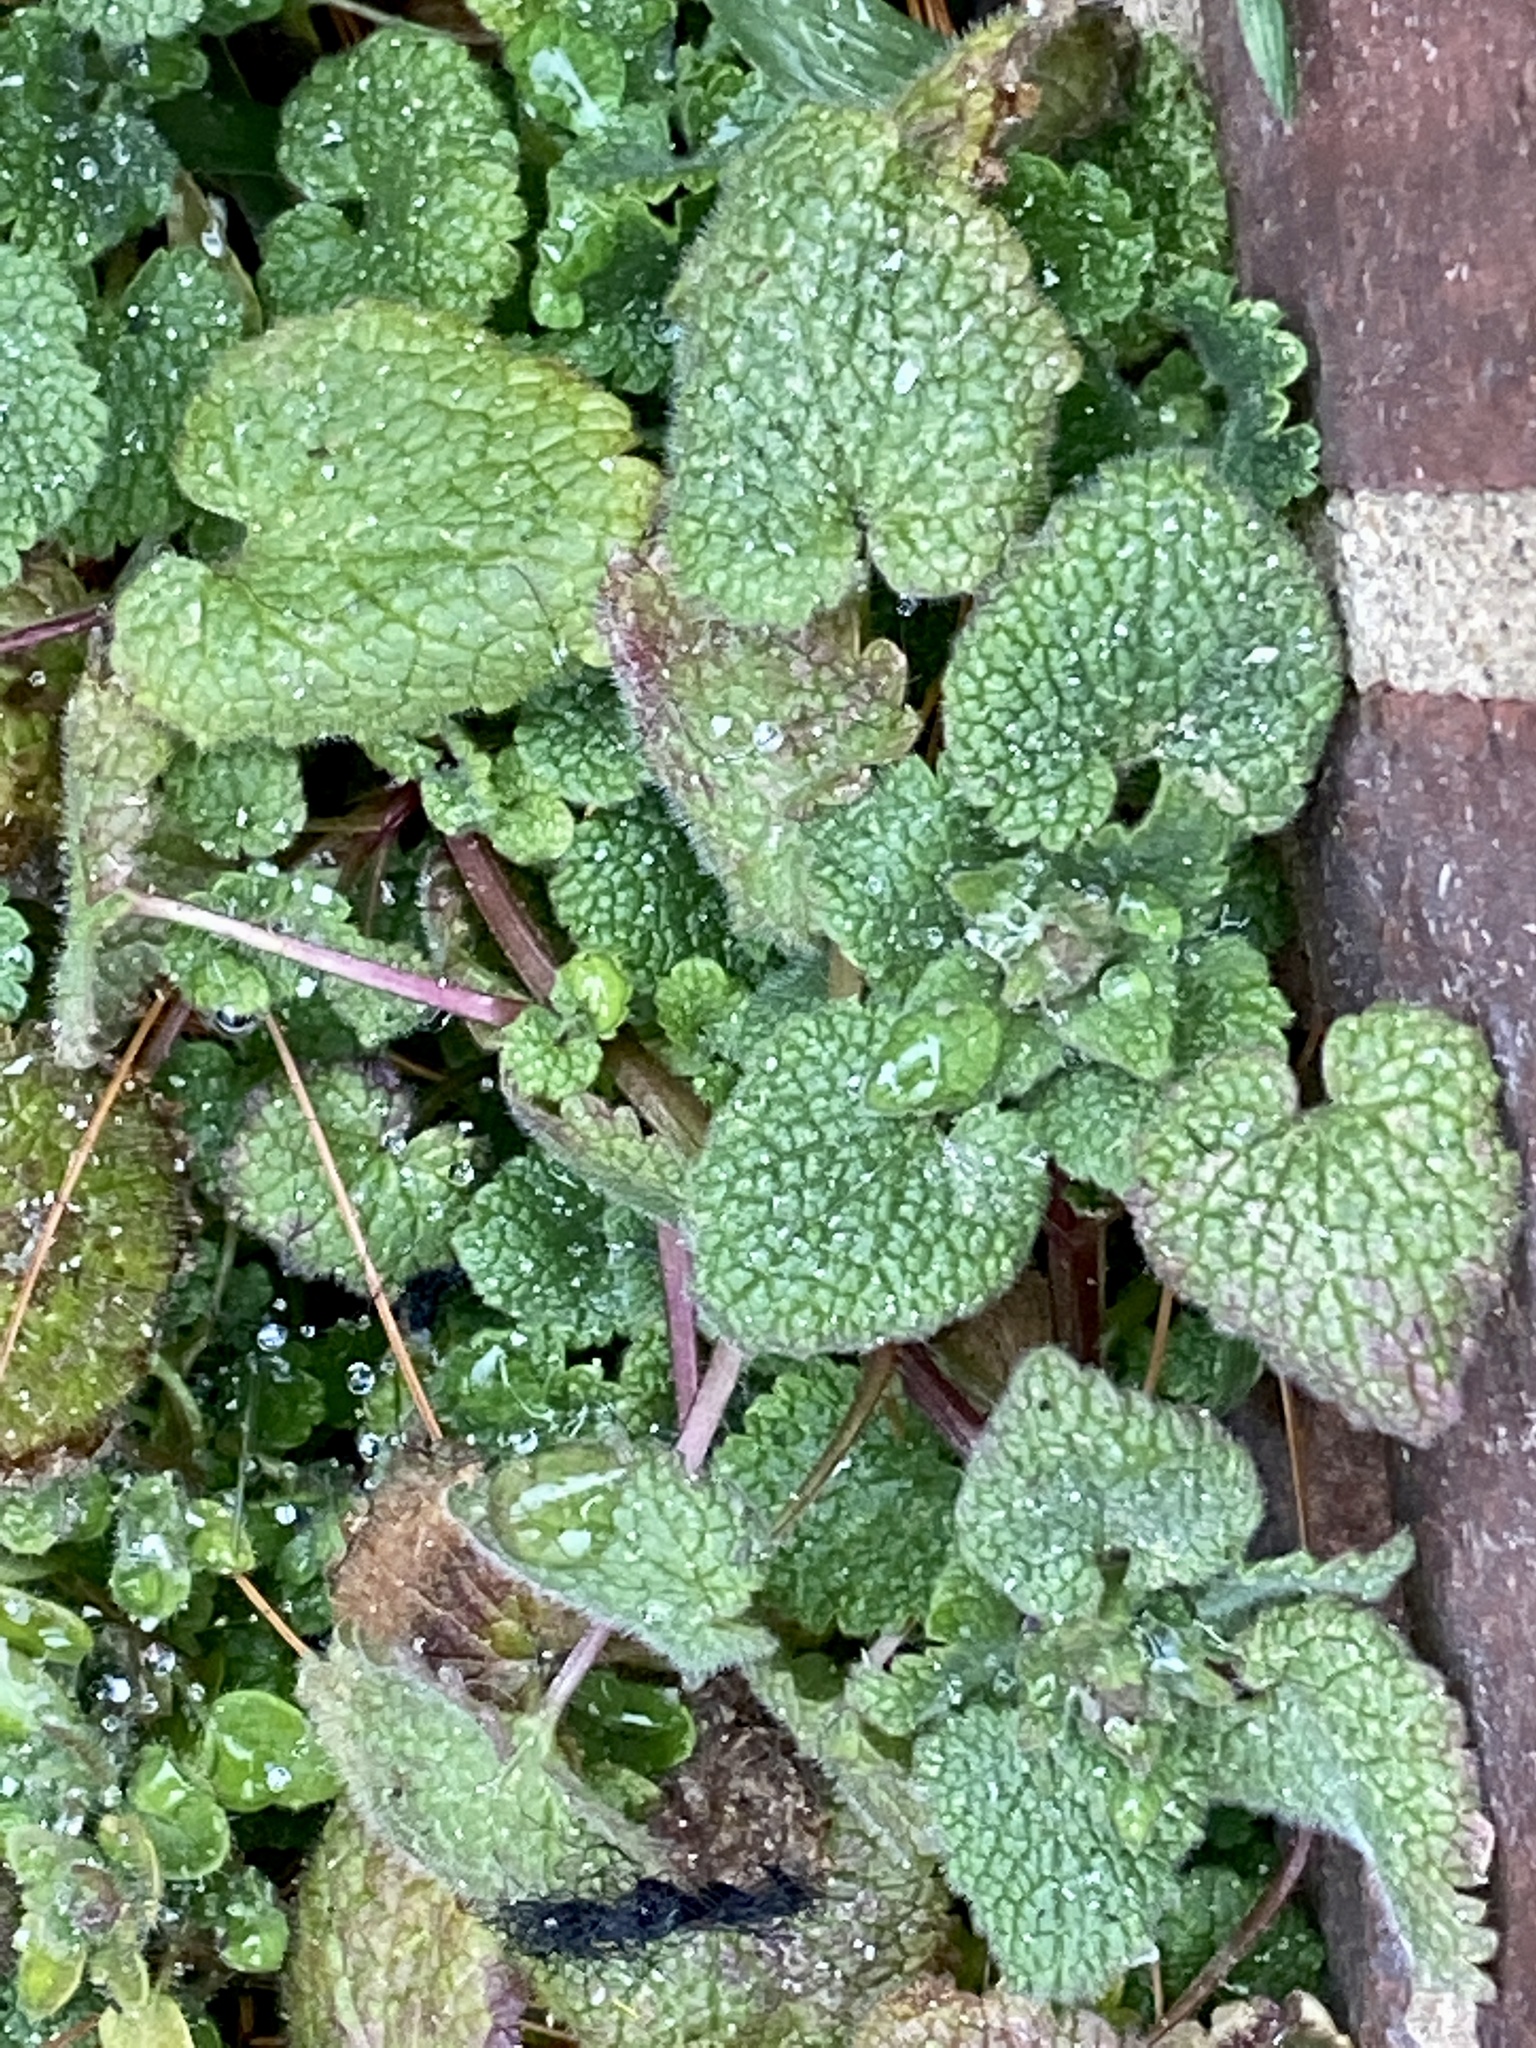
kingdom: Plantae
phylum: Tracheophyta
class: Magnoliopsida
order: Lamiales
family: Lamiaceae
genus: Lamium
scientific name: Lamium purpureum
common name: Red dead-nettle
